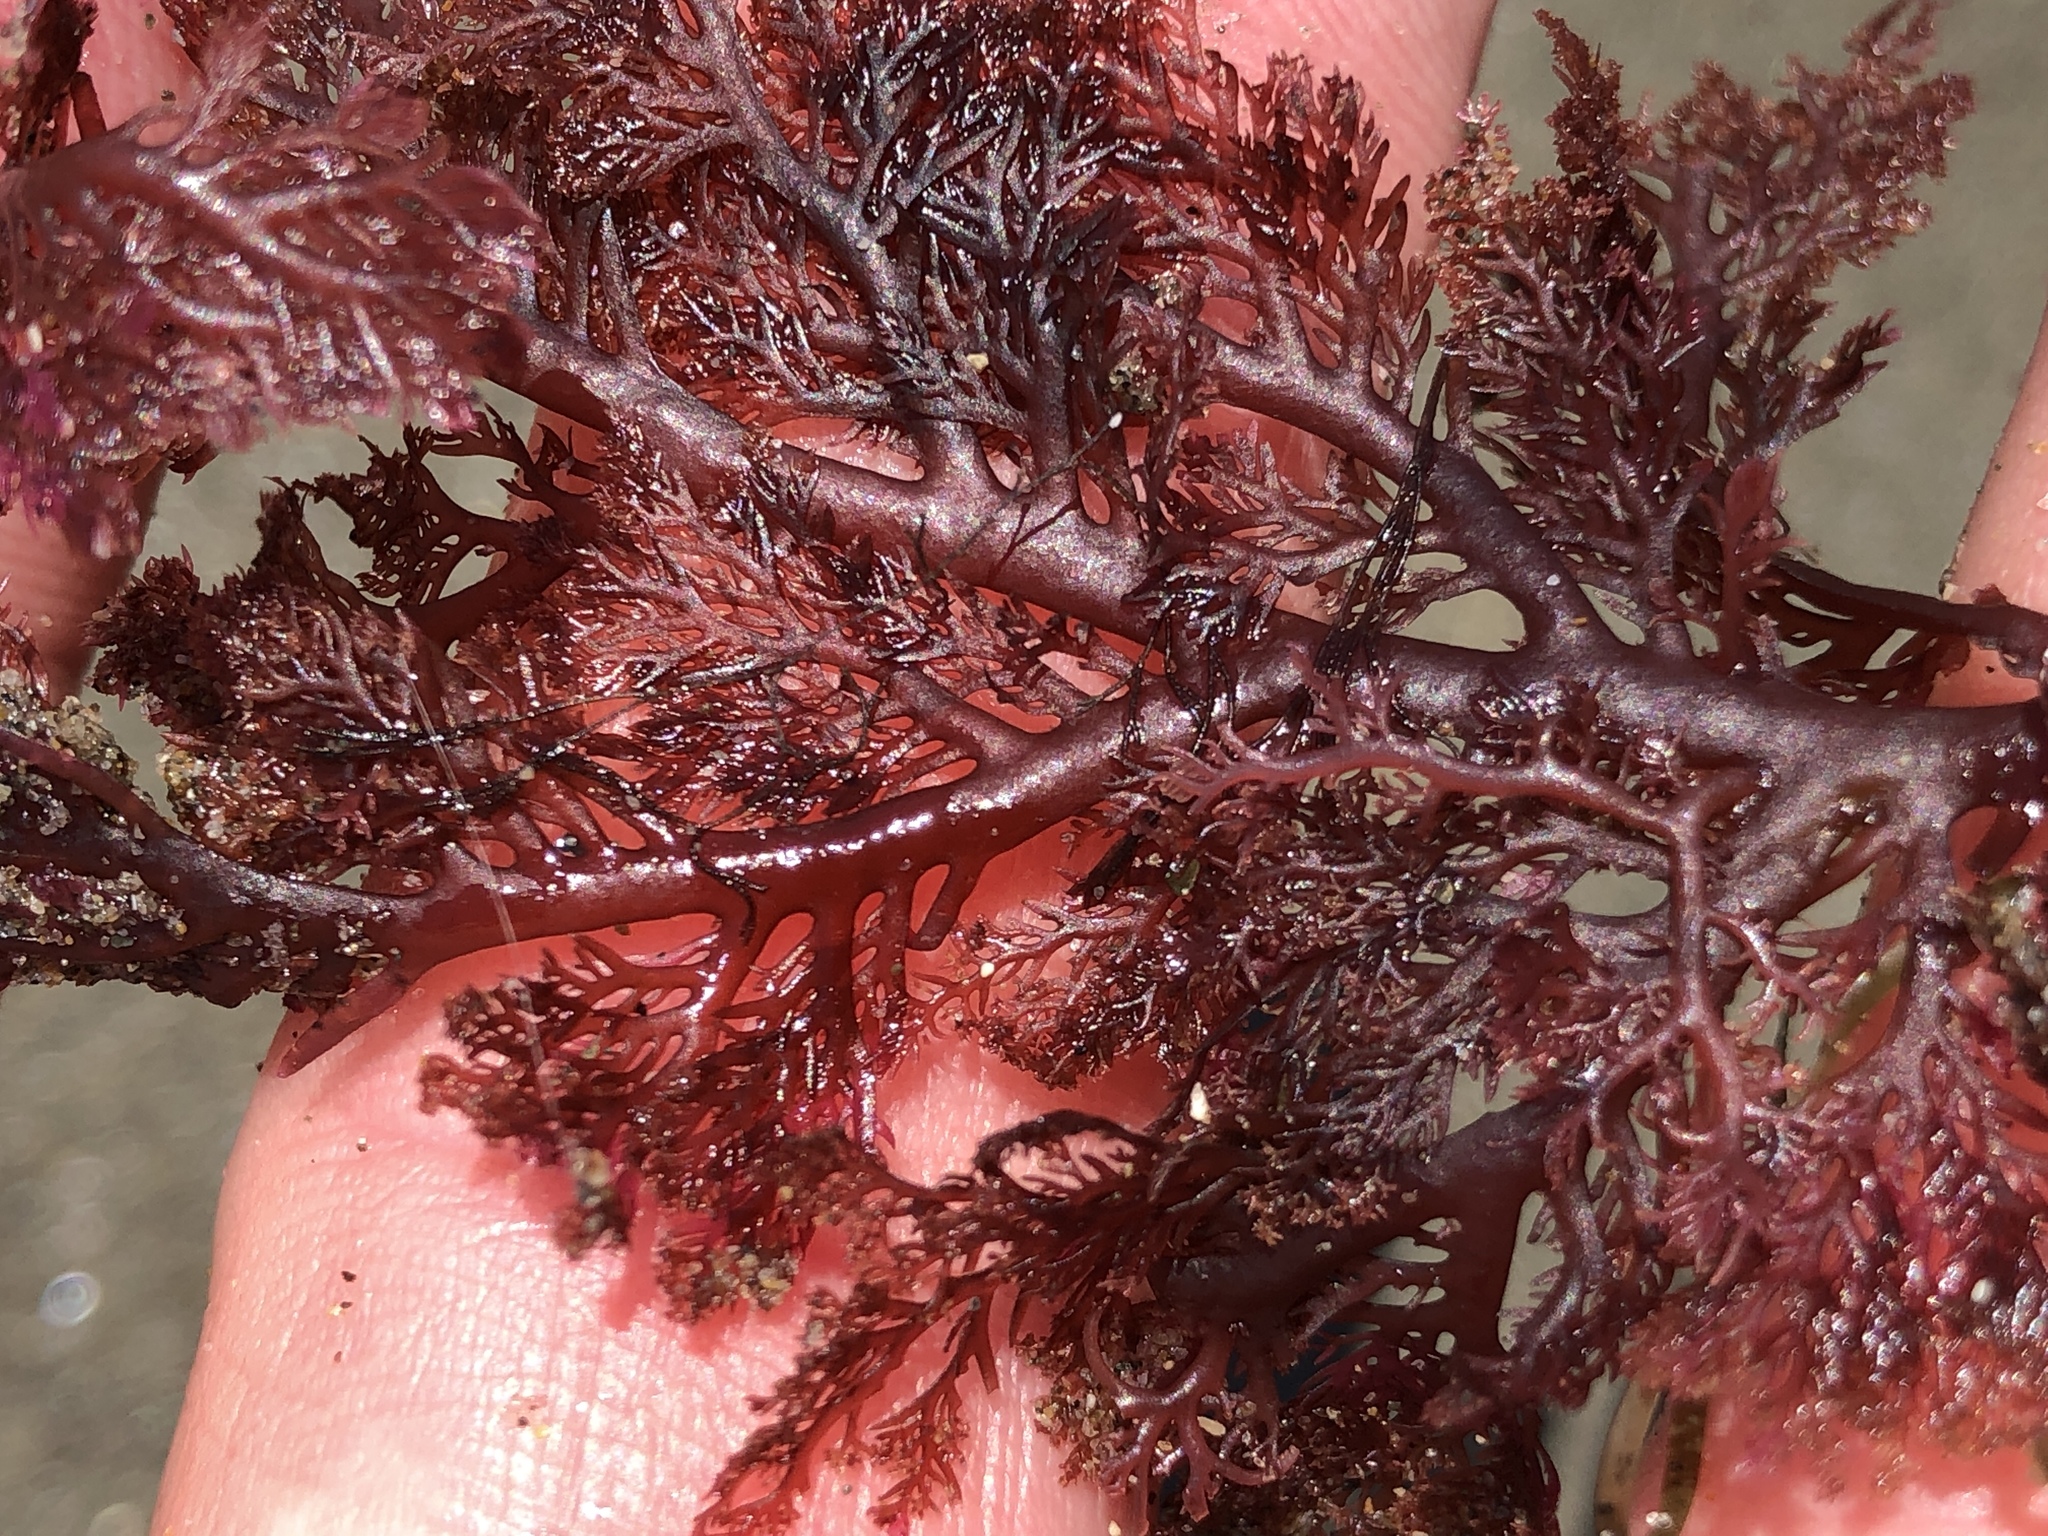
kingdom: Plantae
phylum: Rhodophyta
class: Florideophyceae
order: Plocamiales
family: Plocamiaceae
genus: Plocamium
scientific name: Plocamium cartilagineum
